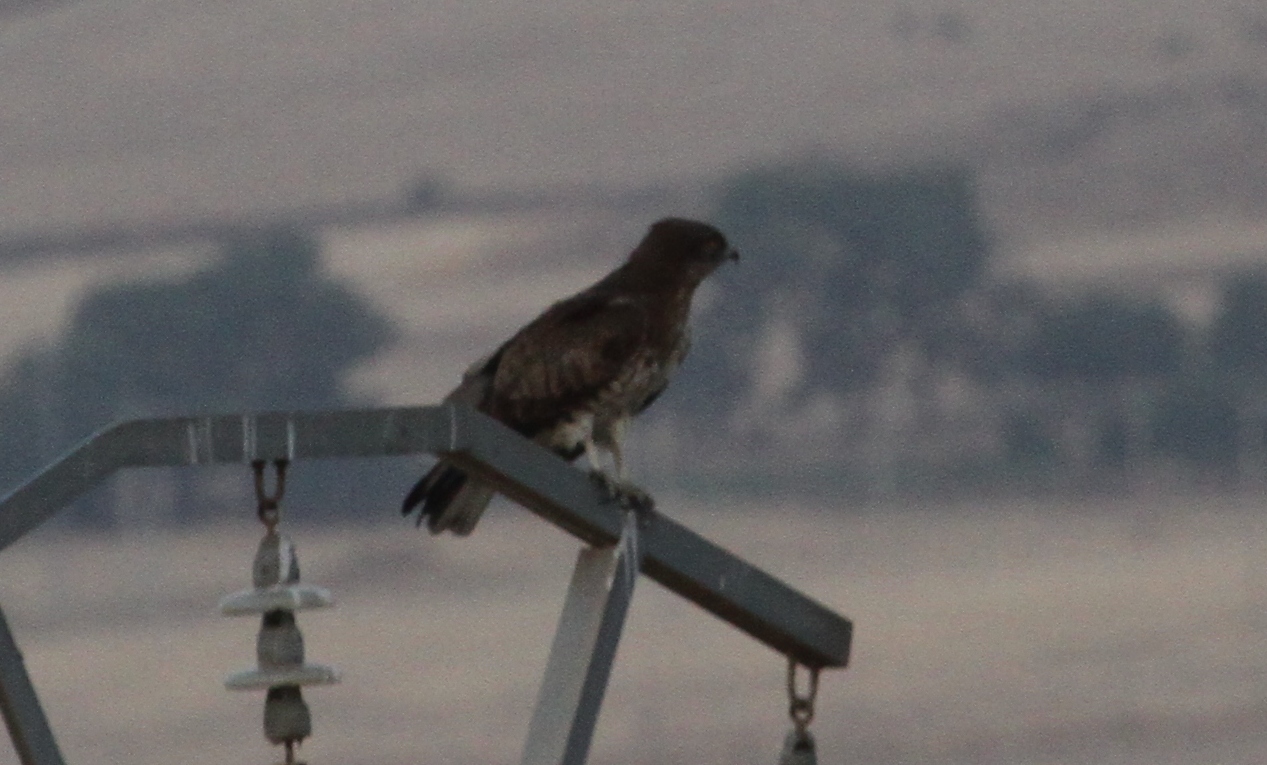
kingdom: Animalia
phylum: Chordata
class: Aves
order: Accipitriformes
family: Accipitridae
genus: Circaetus
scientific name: Circaetus gallicus
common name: Short-toed snake eagle
